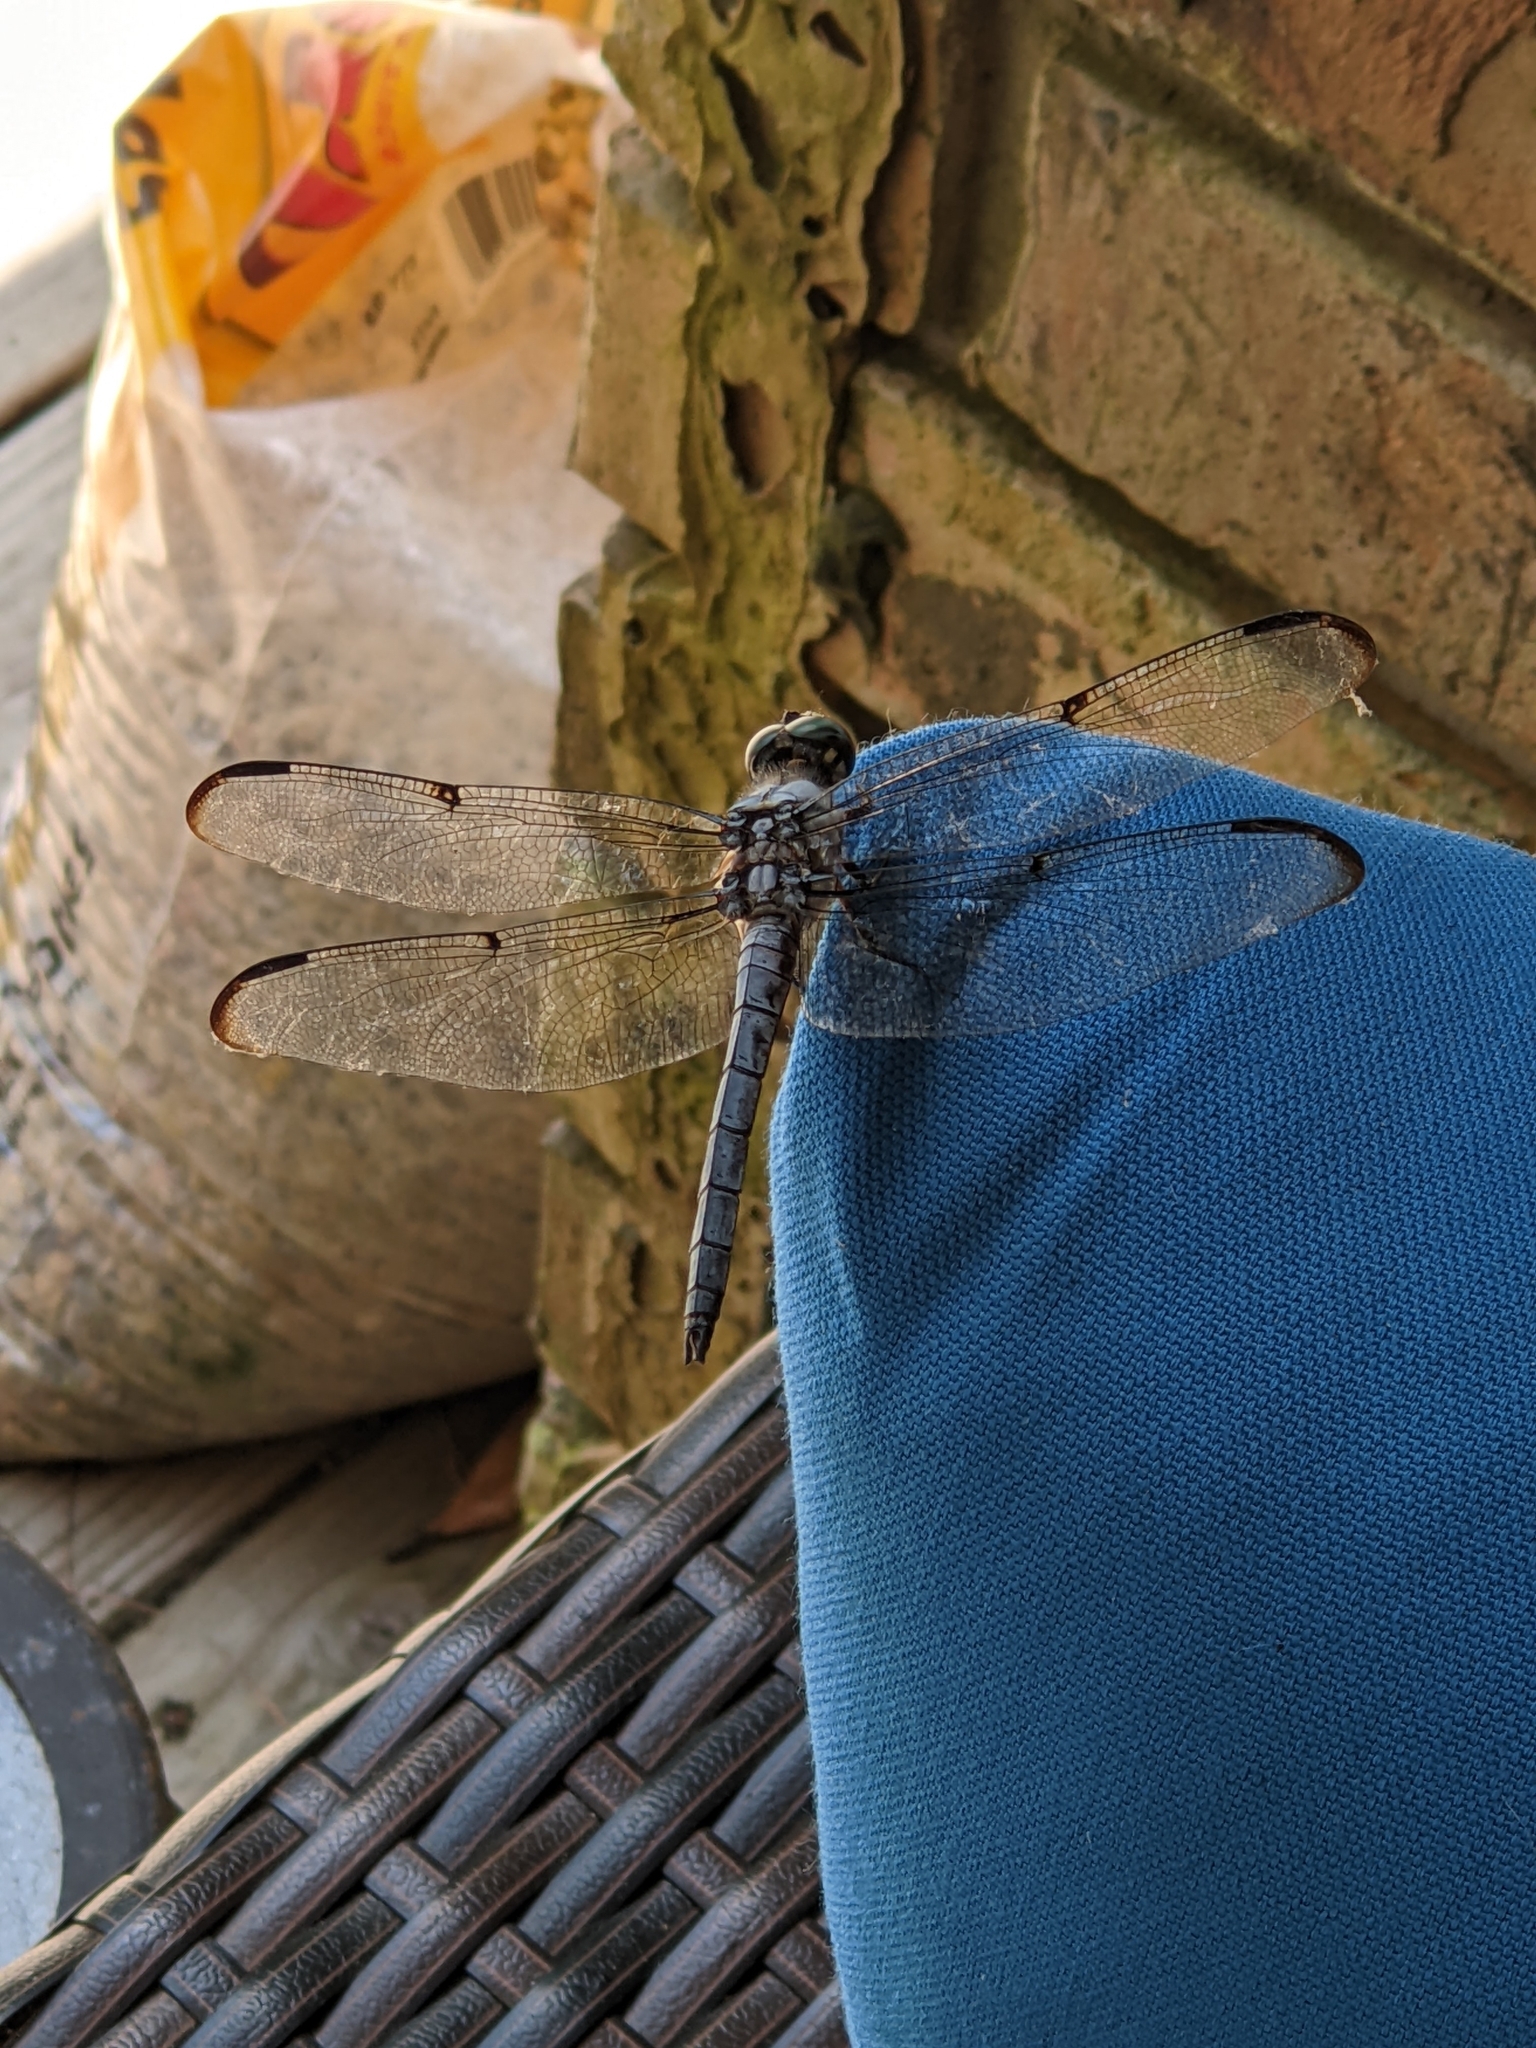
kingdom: Animalia
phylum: Arthropoda
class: Insecta
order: Odonata
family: Libellulidae
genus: Libellula
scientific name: Libellula vibrans
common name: Great blue skimmer
